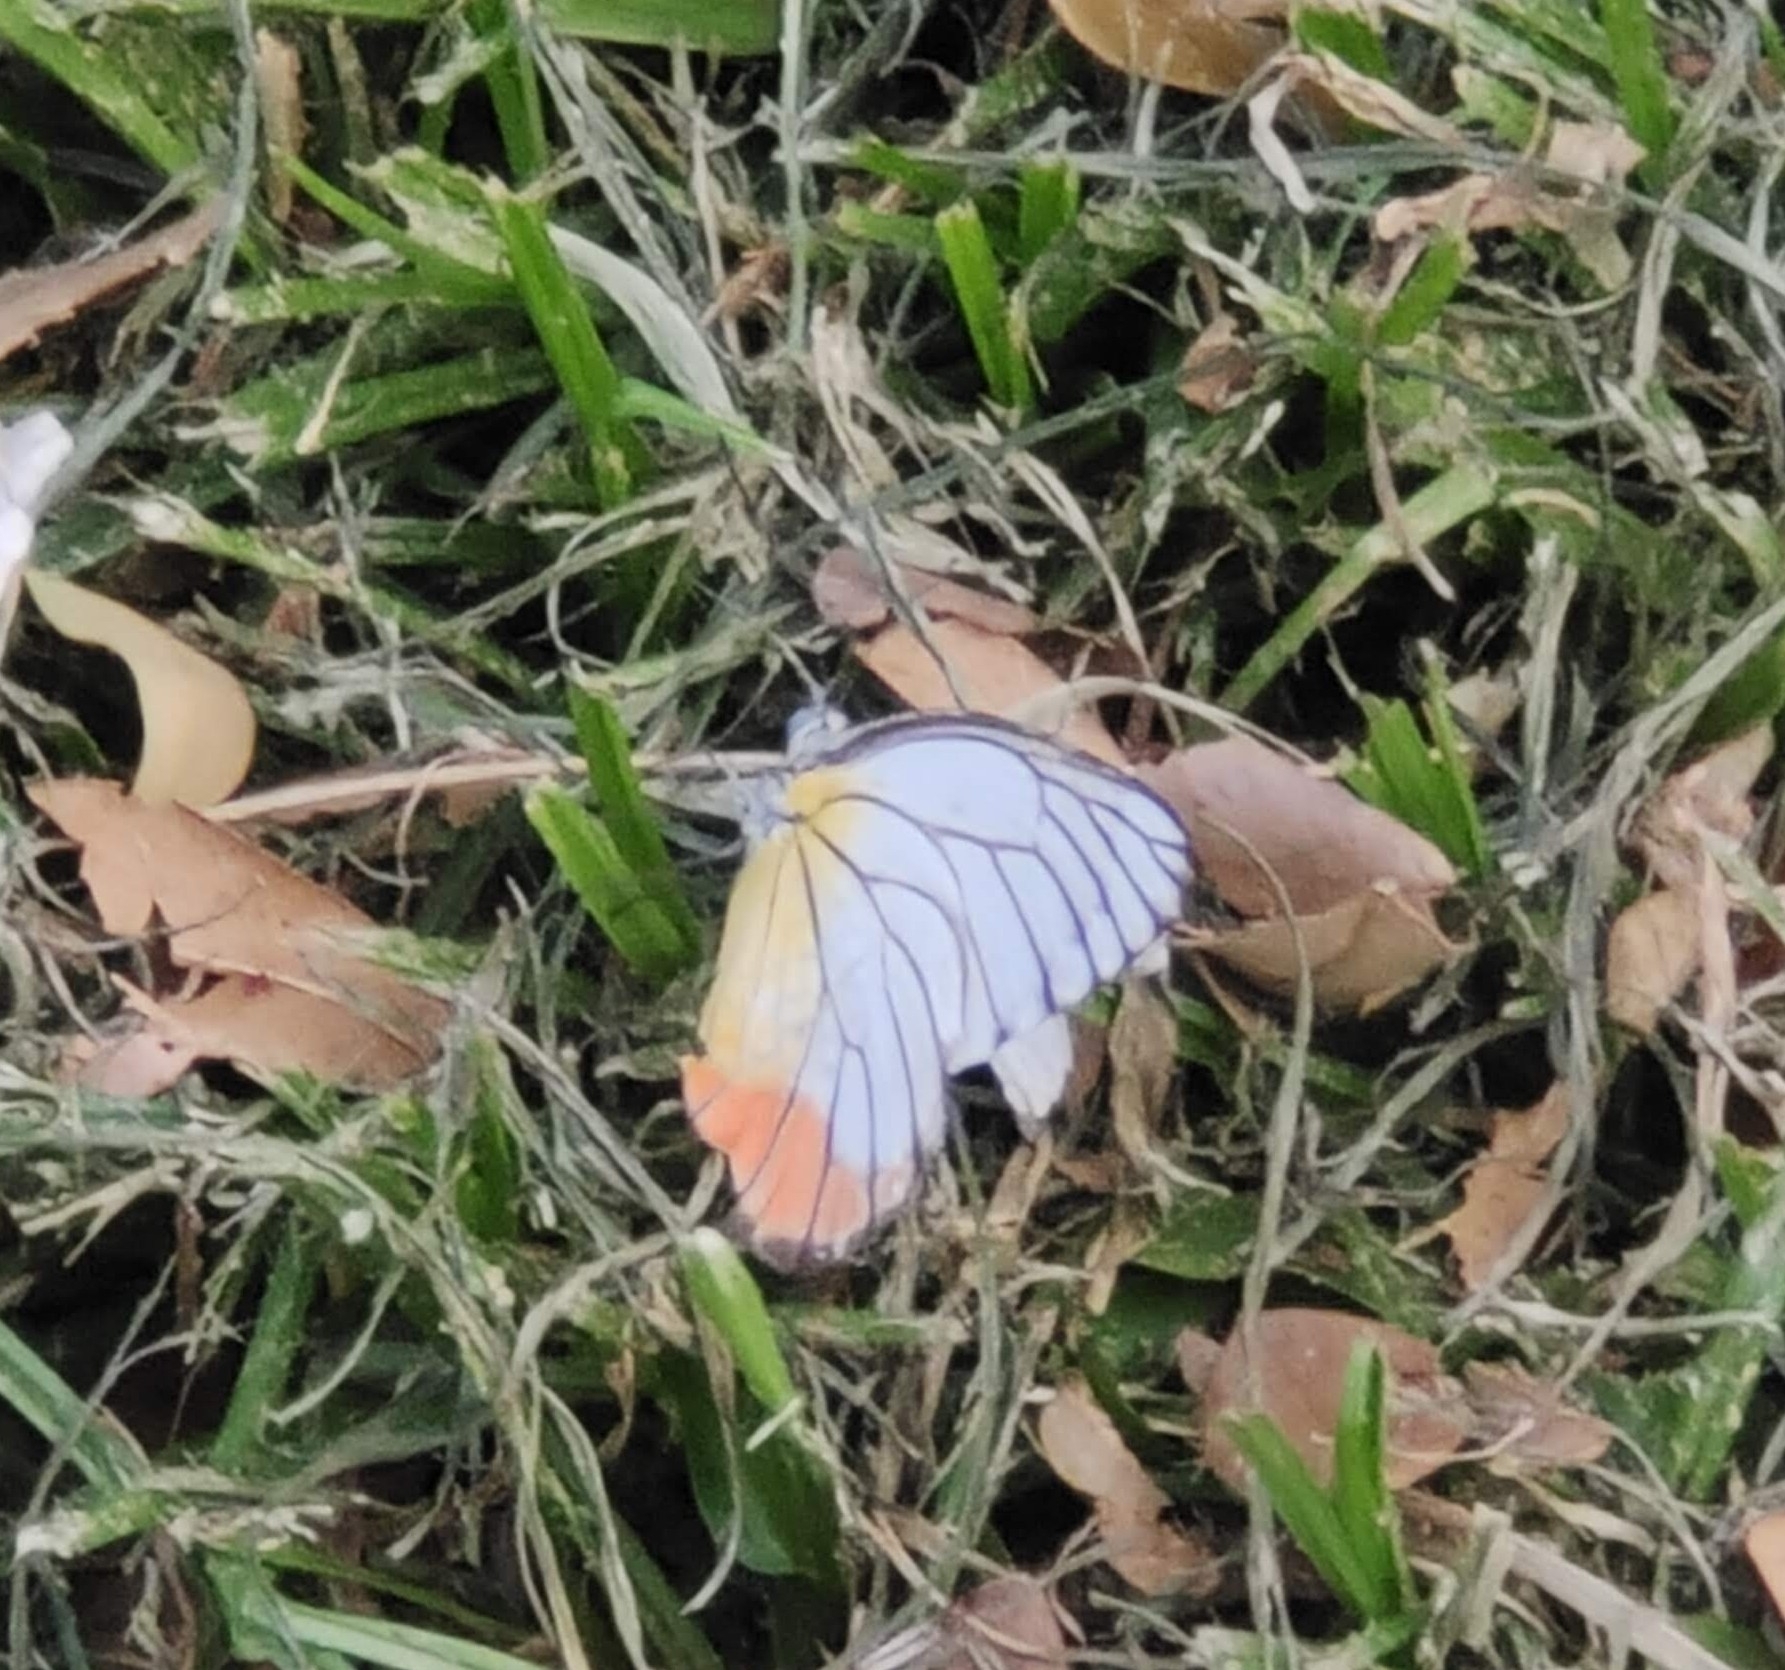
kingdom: Animalia
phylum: Arthropoda
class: Insecta
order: Lepidoptera
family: Pieridae
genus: Delias
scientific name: Delias hyparete
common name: Painted jezebel
